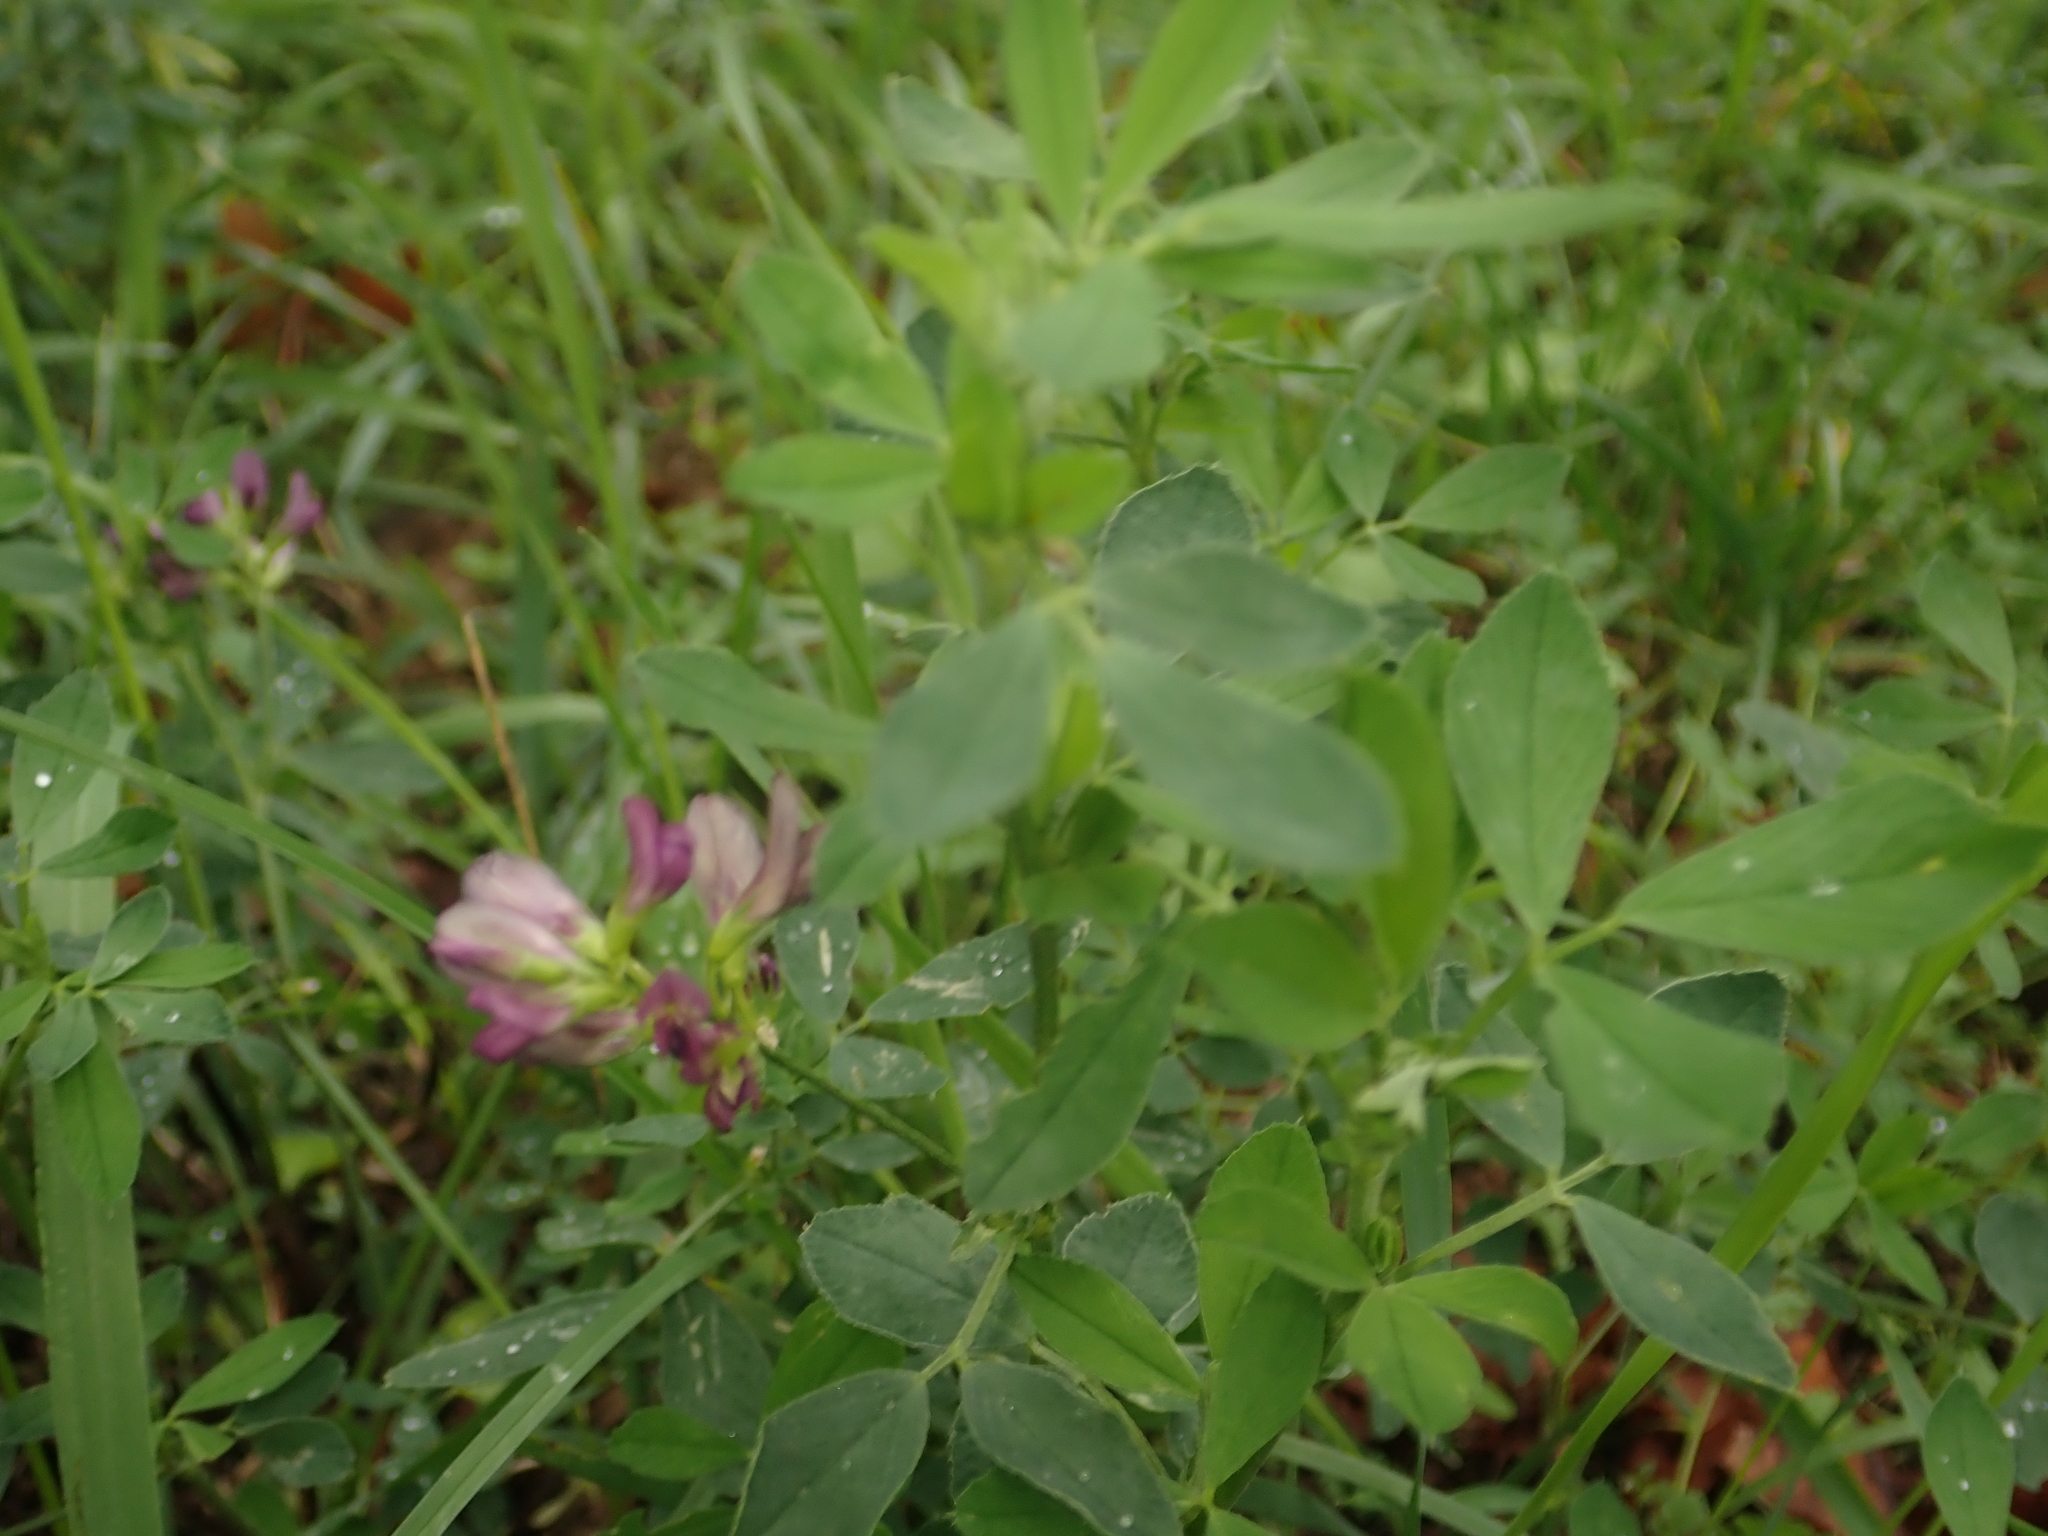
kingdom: Plantae
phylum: Tracheophyta
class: Magnoliopsida
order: Fabales
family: Fabaceae
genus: Medicago
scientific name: Medicago varia
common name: Sand lucerne
